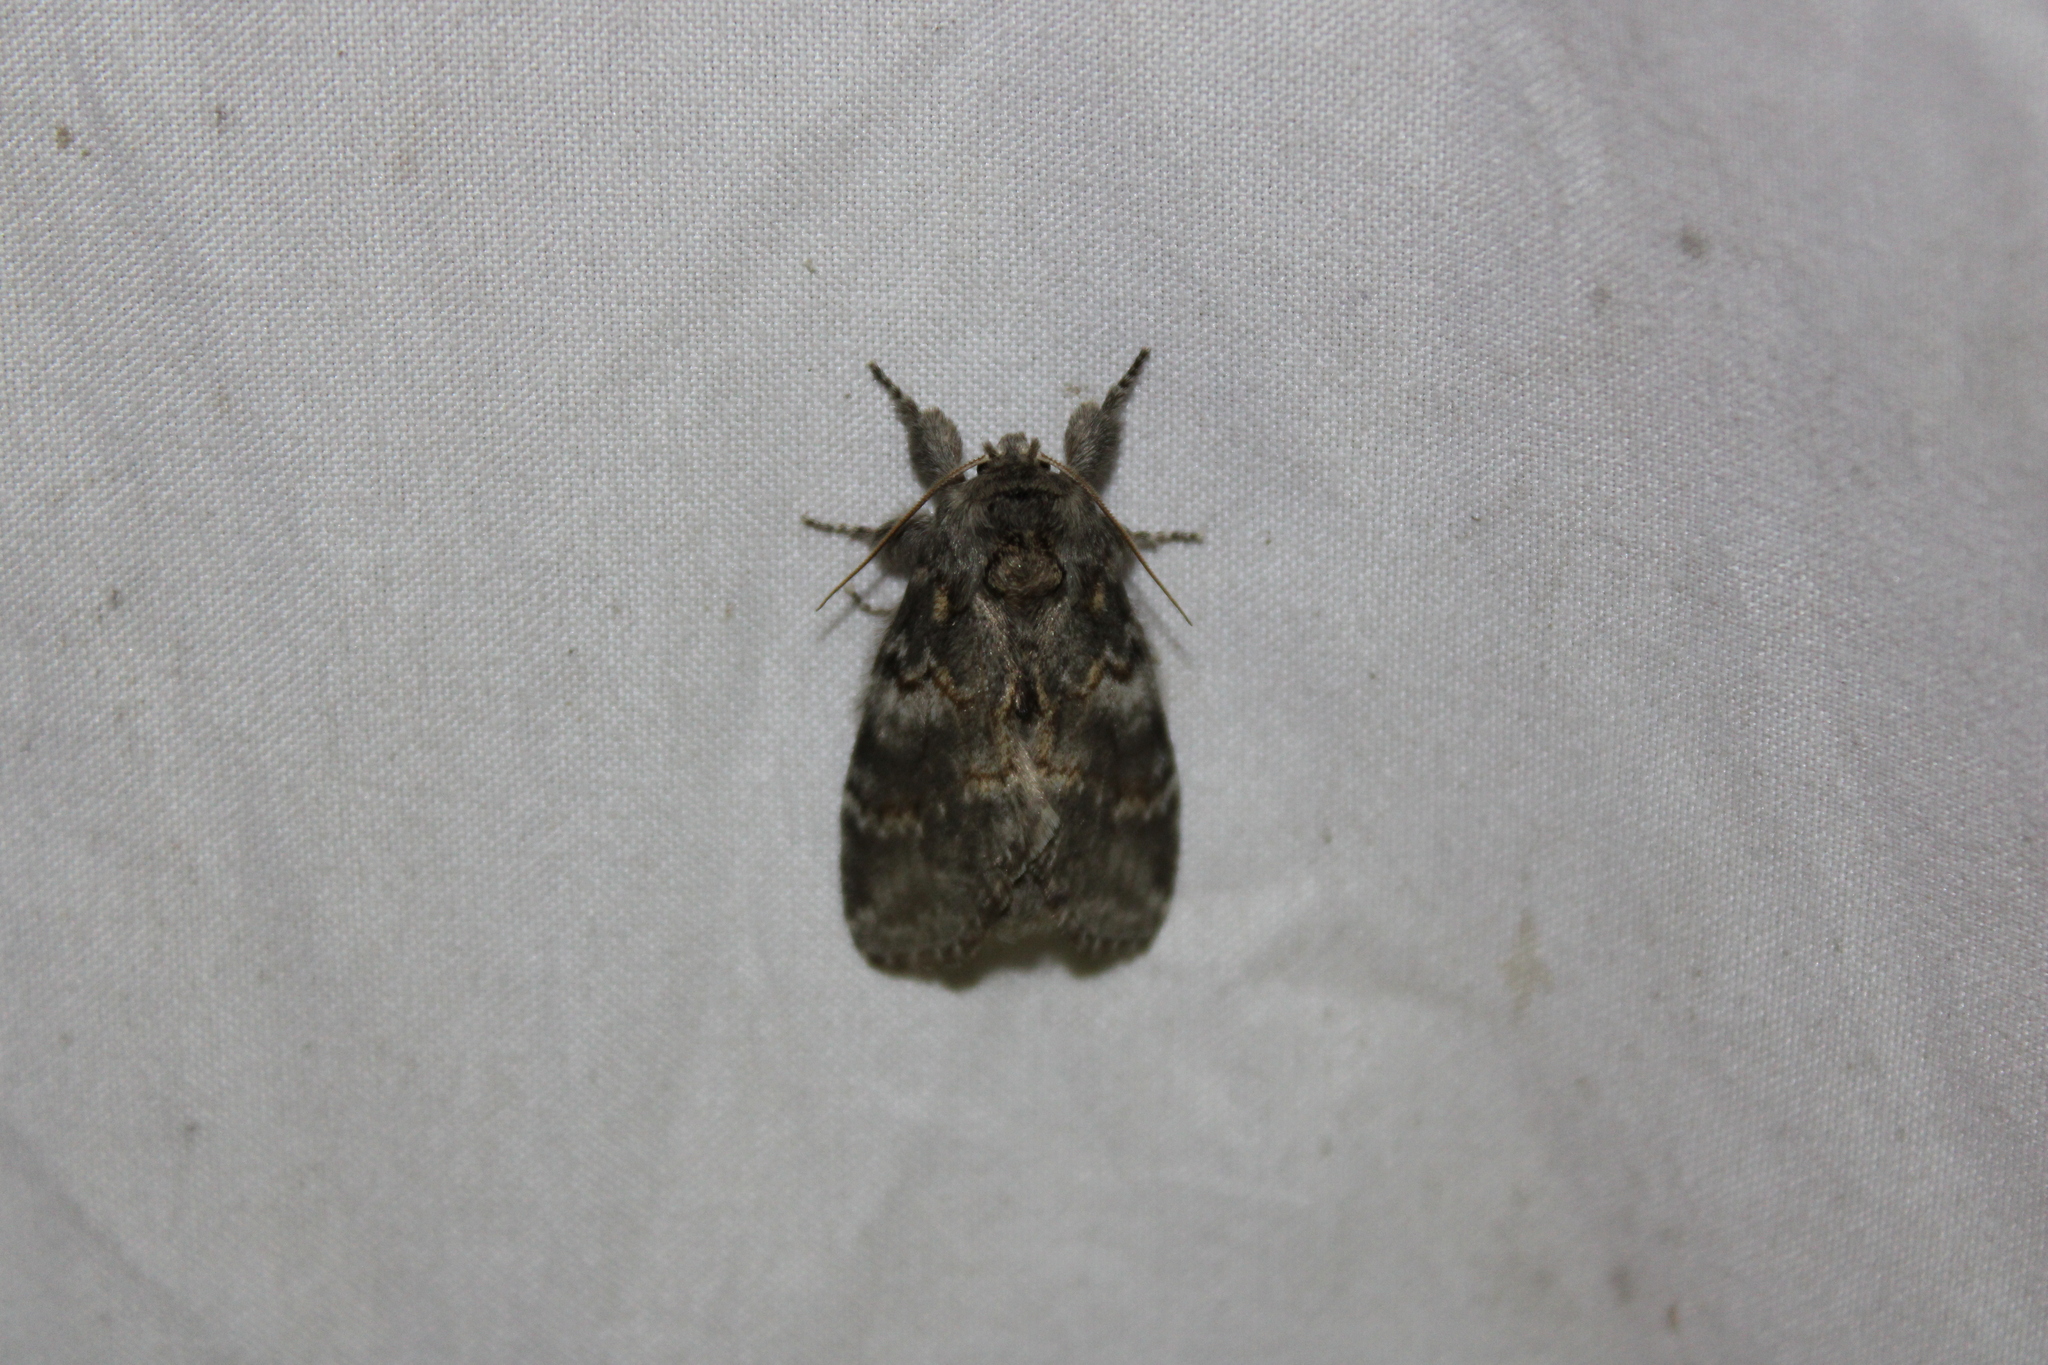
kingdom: Animalia
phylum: Arthropoda
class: Insecta
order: Lepidoptera
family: Notodontidae
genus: Peridea
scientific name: Peridea angulosa
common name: Angulose prominent
